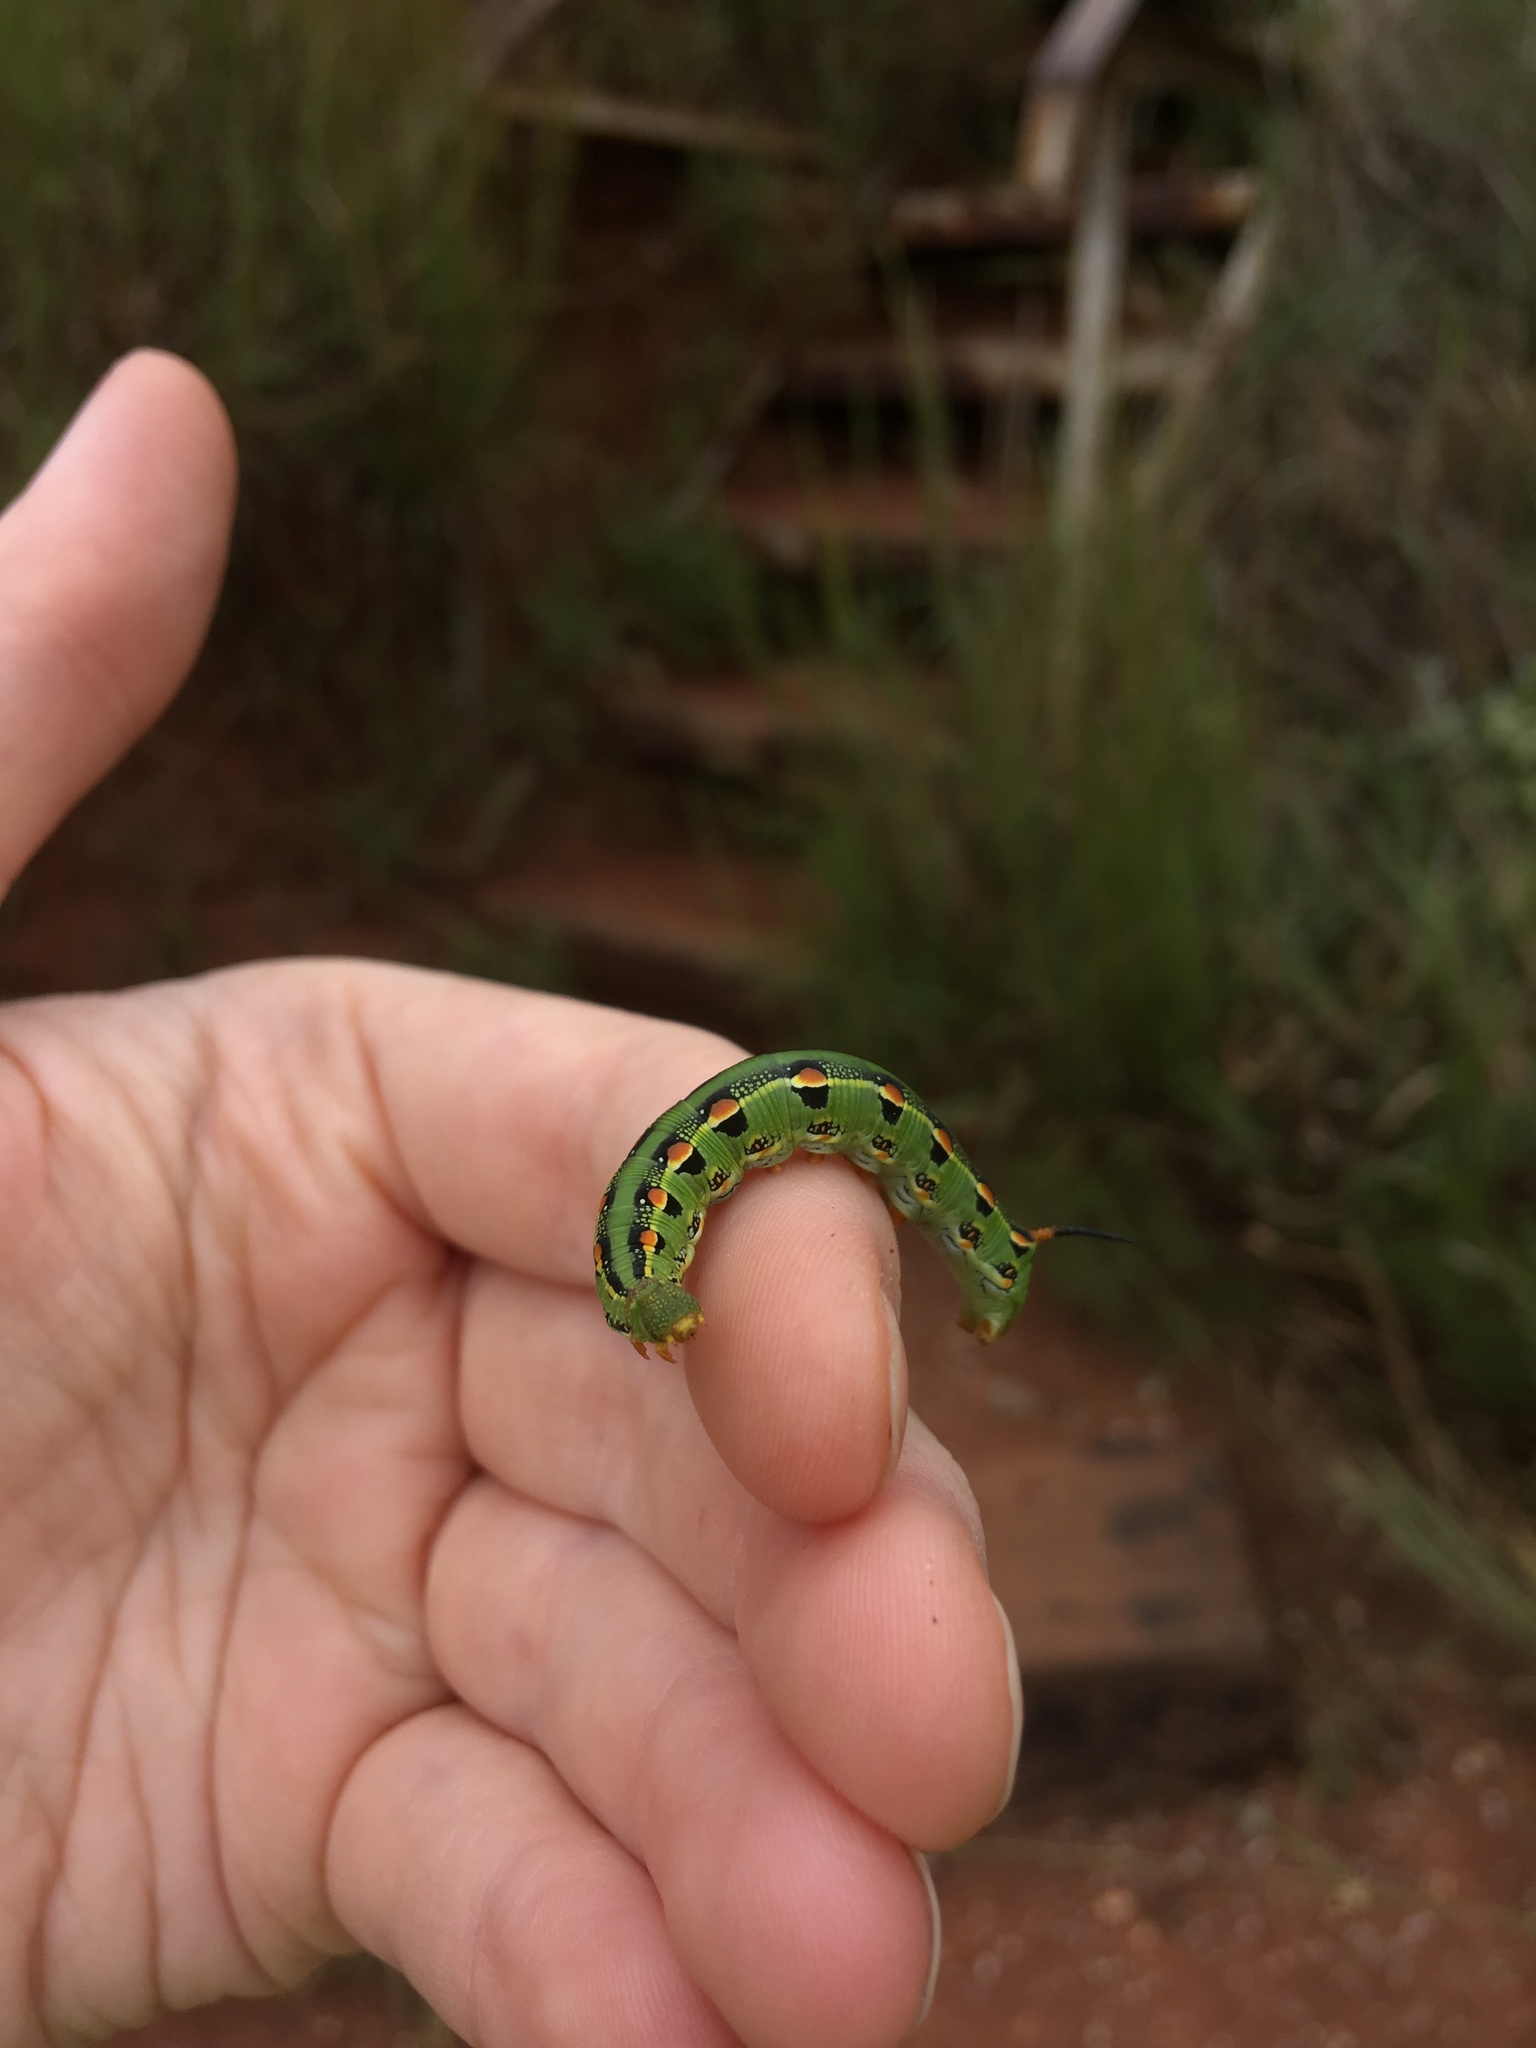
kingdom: Animalia
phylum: Arthropoda
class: Insecta
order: Lepidoptera
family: Sphingidae
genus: Hyles
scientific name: Hyles lineata
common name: White-lined sphinx
